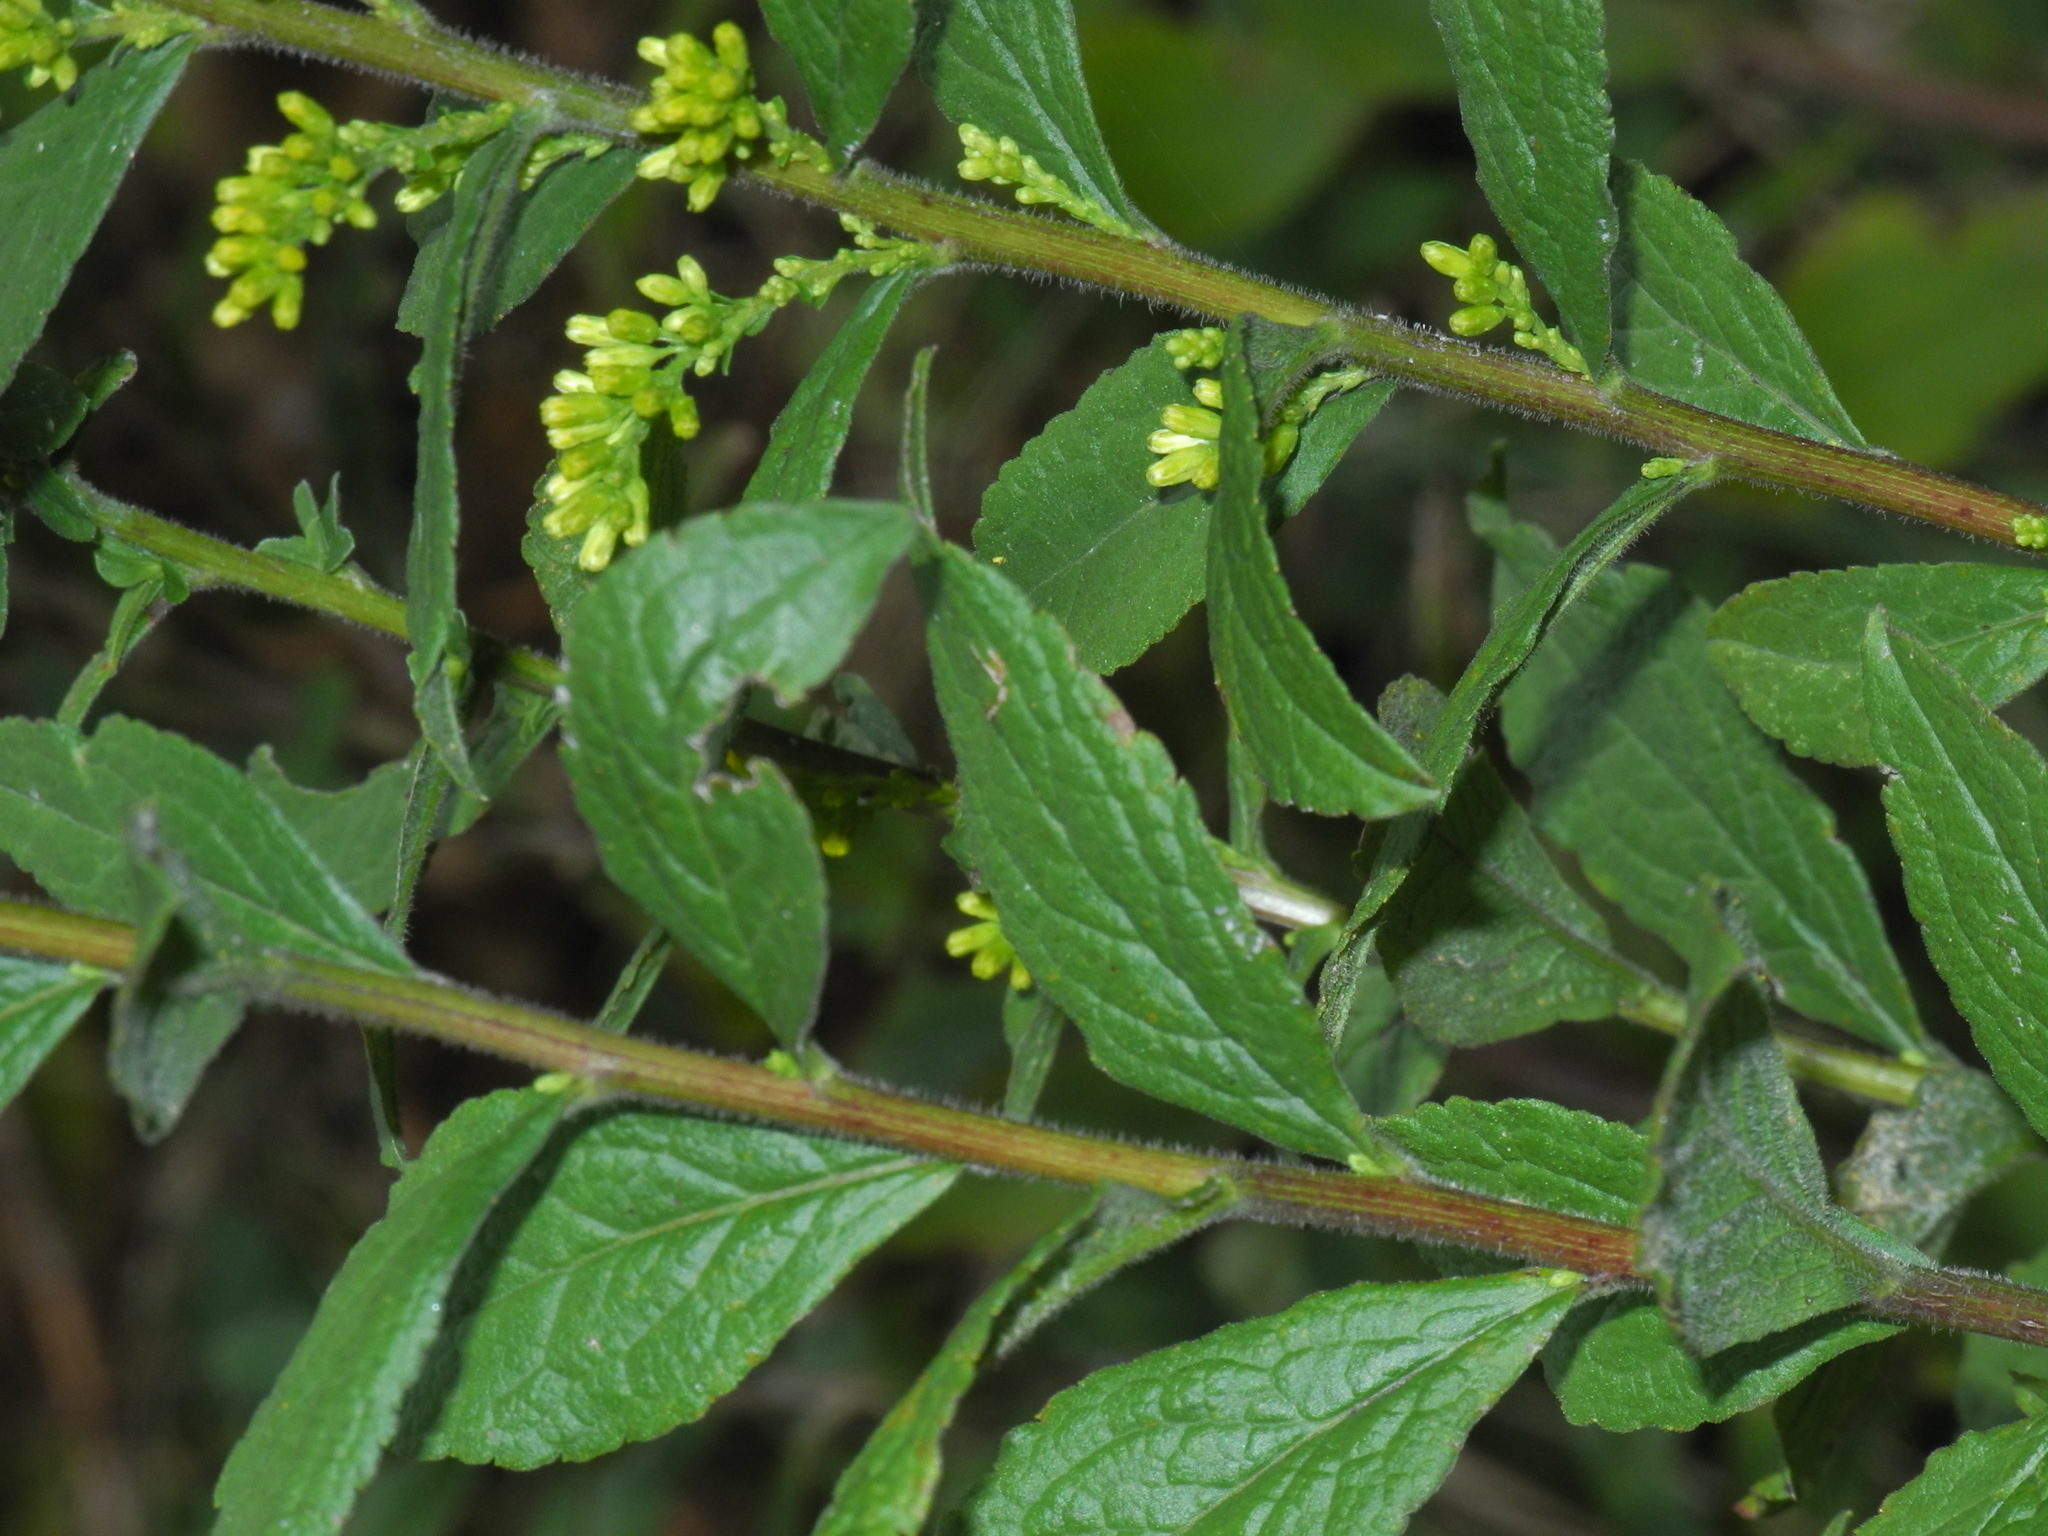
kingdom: Plantae
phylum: Tracheophyta
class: Magnoliopsida
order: Asterales
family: Asteraceae
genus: Solidago
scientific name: Solidago rugosa
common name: Rough-stemmed goldenrod
